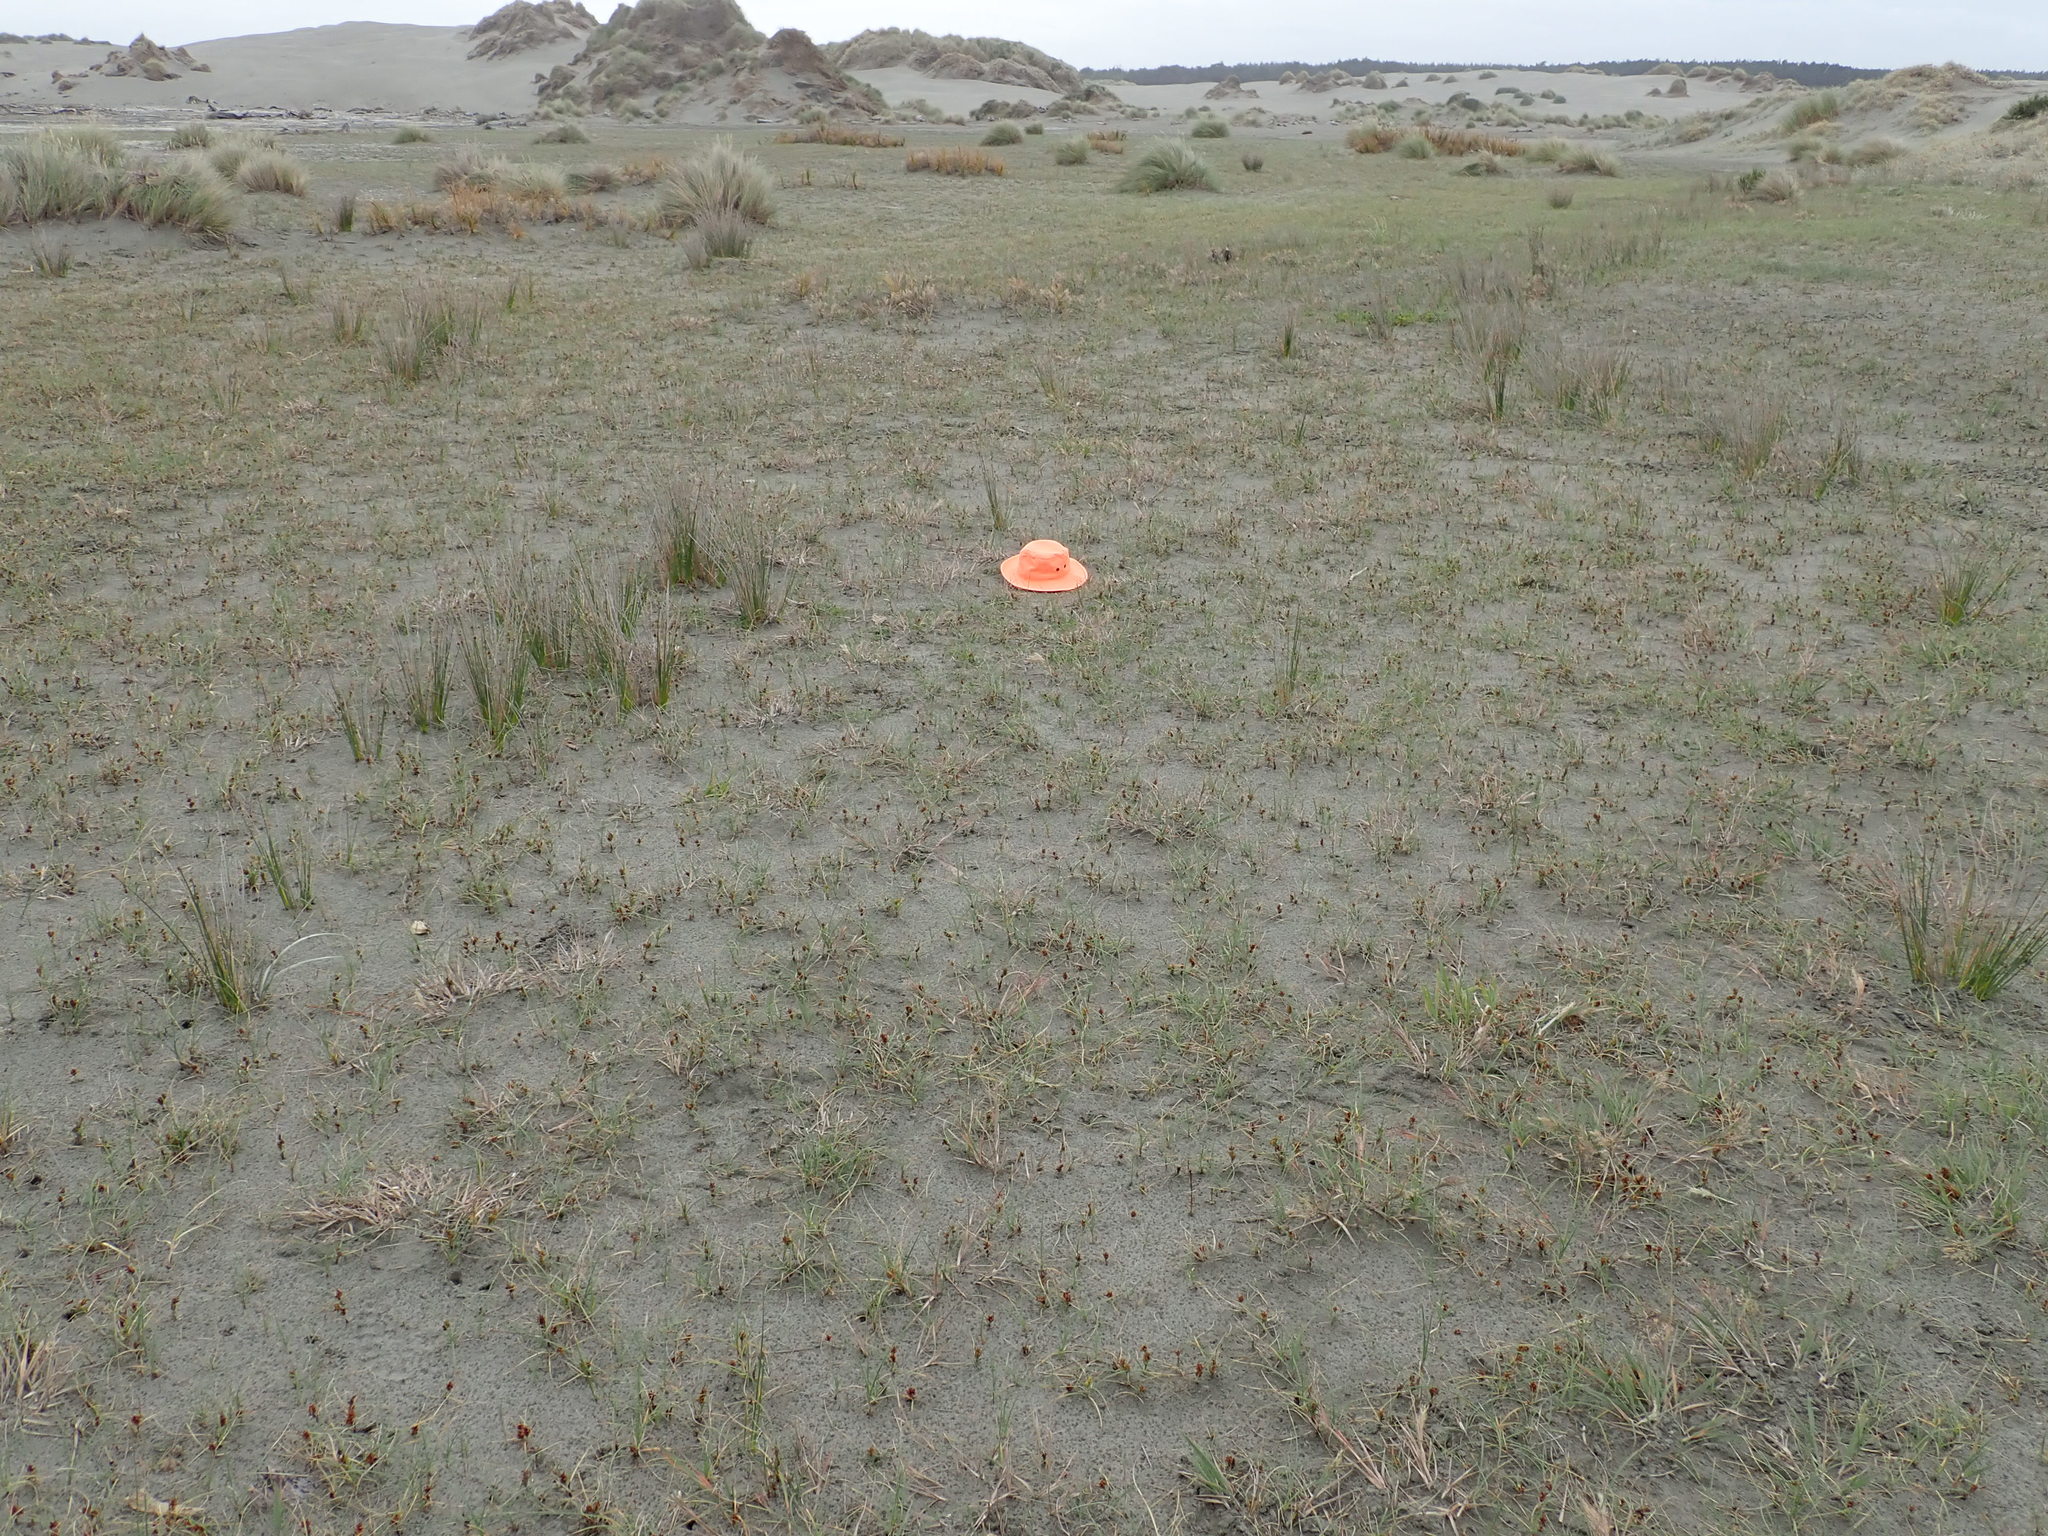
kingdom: Plantae
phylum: Tracheophyta
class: Magnoliopsida
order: Asterales
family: Goodeniaceae
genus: Goodenia
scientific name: Goodenia radicans
